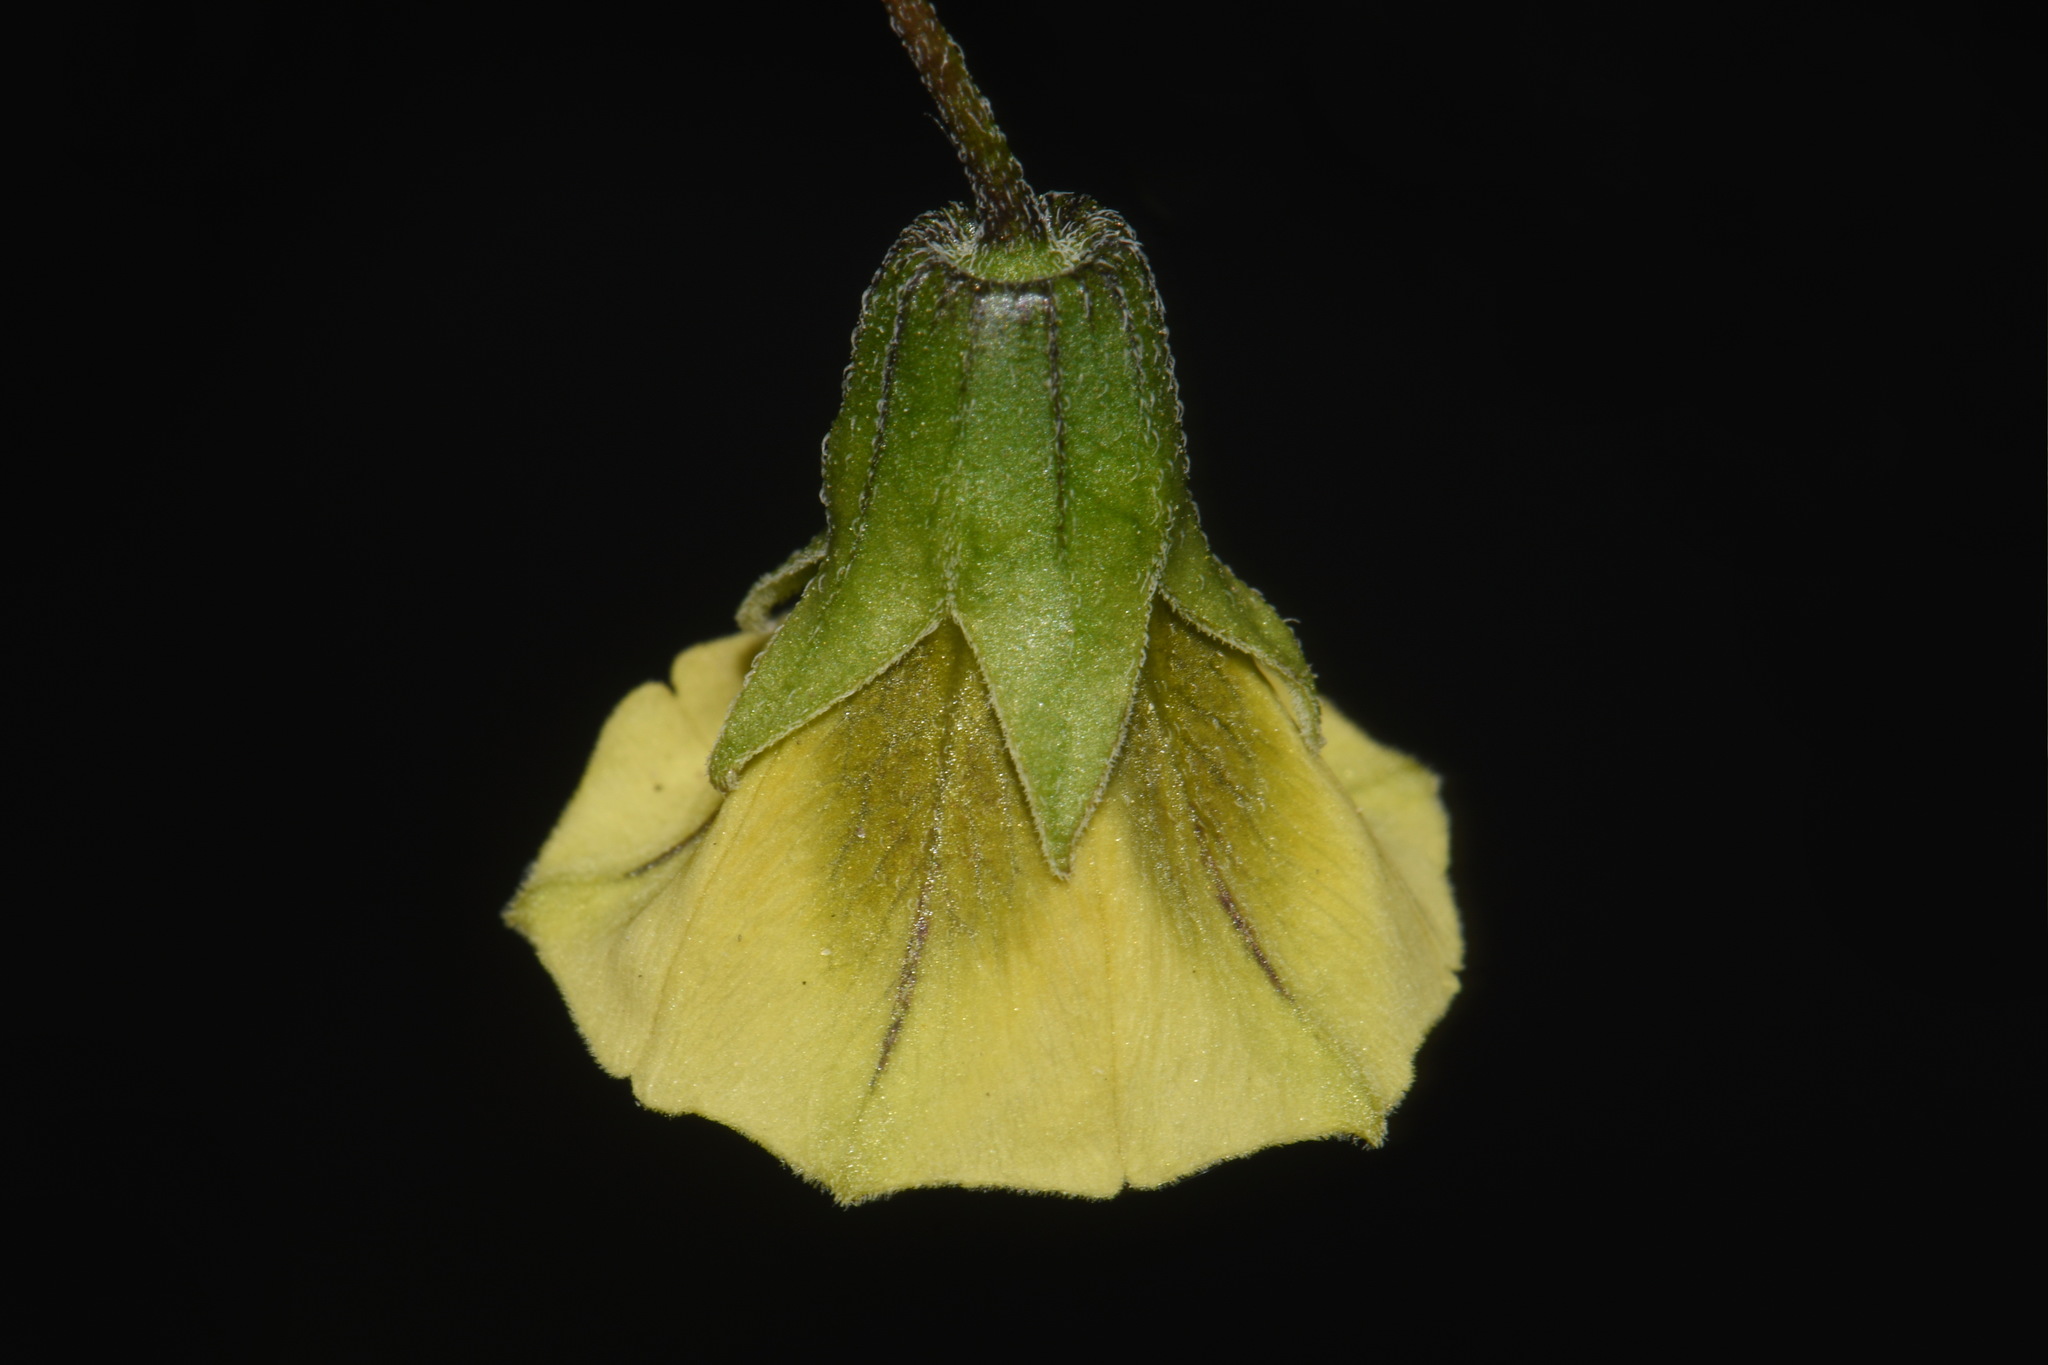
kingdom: Plantae
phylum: Tracheophyta
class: Magnoliopsida
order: Solanales
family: Solanaceae
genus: Physalis
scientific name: Physalis longifolia
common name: Common ground-cherry
